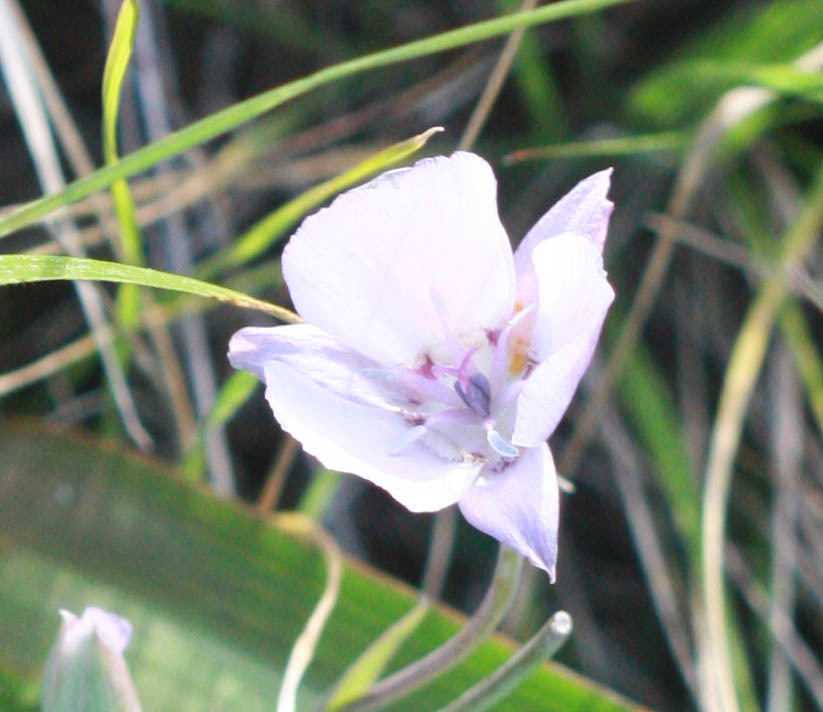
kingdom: Plantae
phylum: Tracheophyta
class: Liliopsida
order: Liliales
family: Liliaceae
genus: Calochortus
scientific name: Calochortus umbellatus
